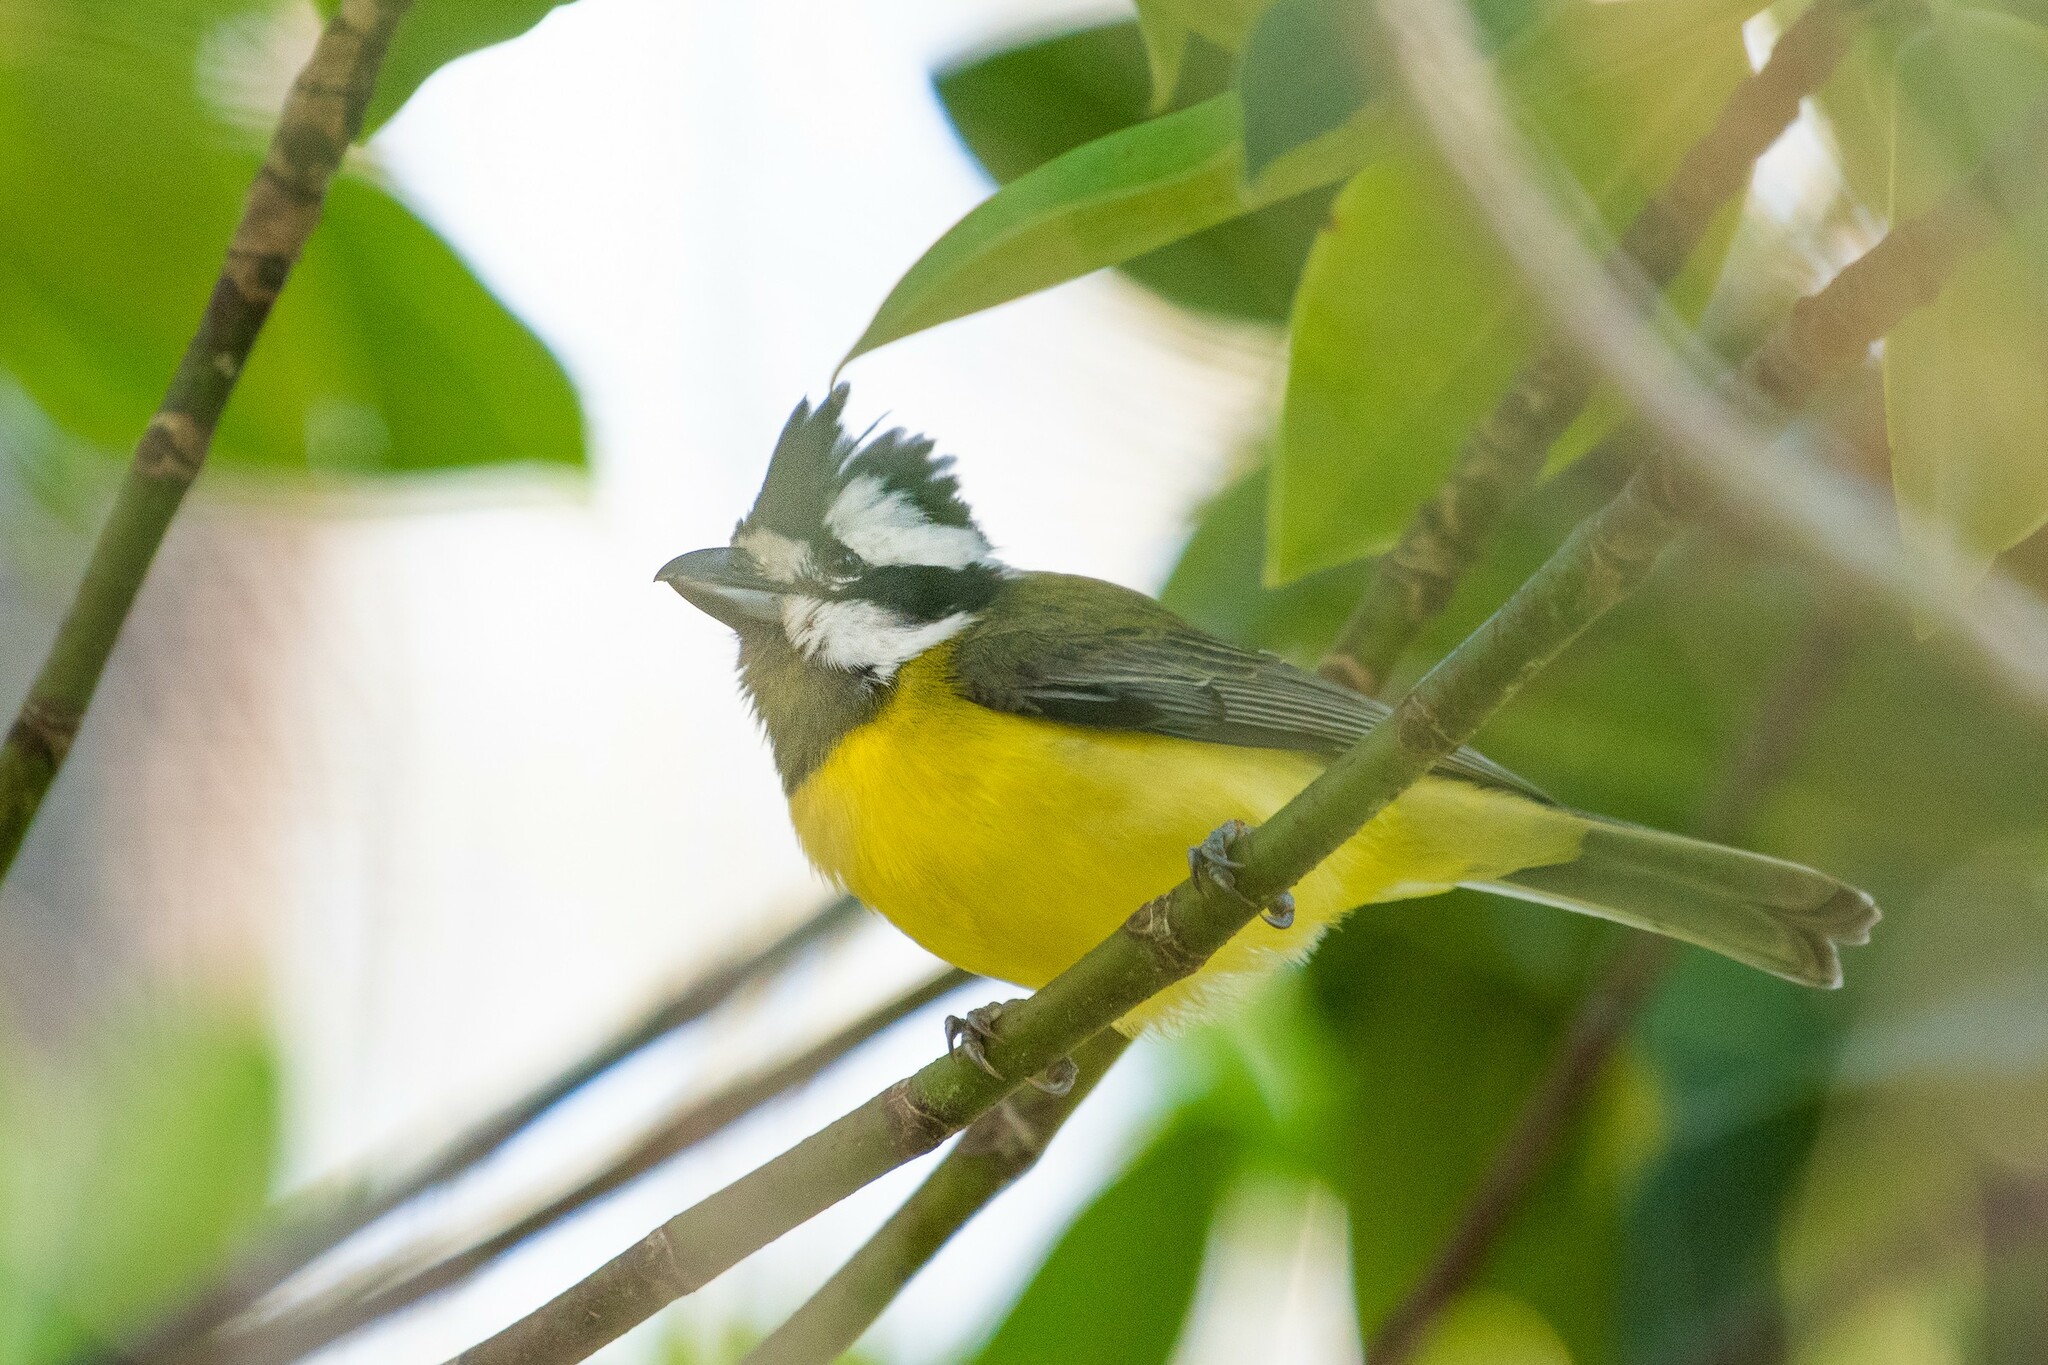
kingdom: Animalia
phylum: Chordata
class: Aves
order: Passeriformes
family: Pachycephalidae
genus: Falcunculus
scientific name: Falcunculus frontatus
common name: Crested shriketit
